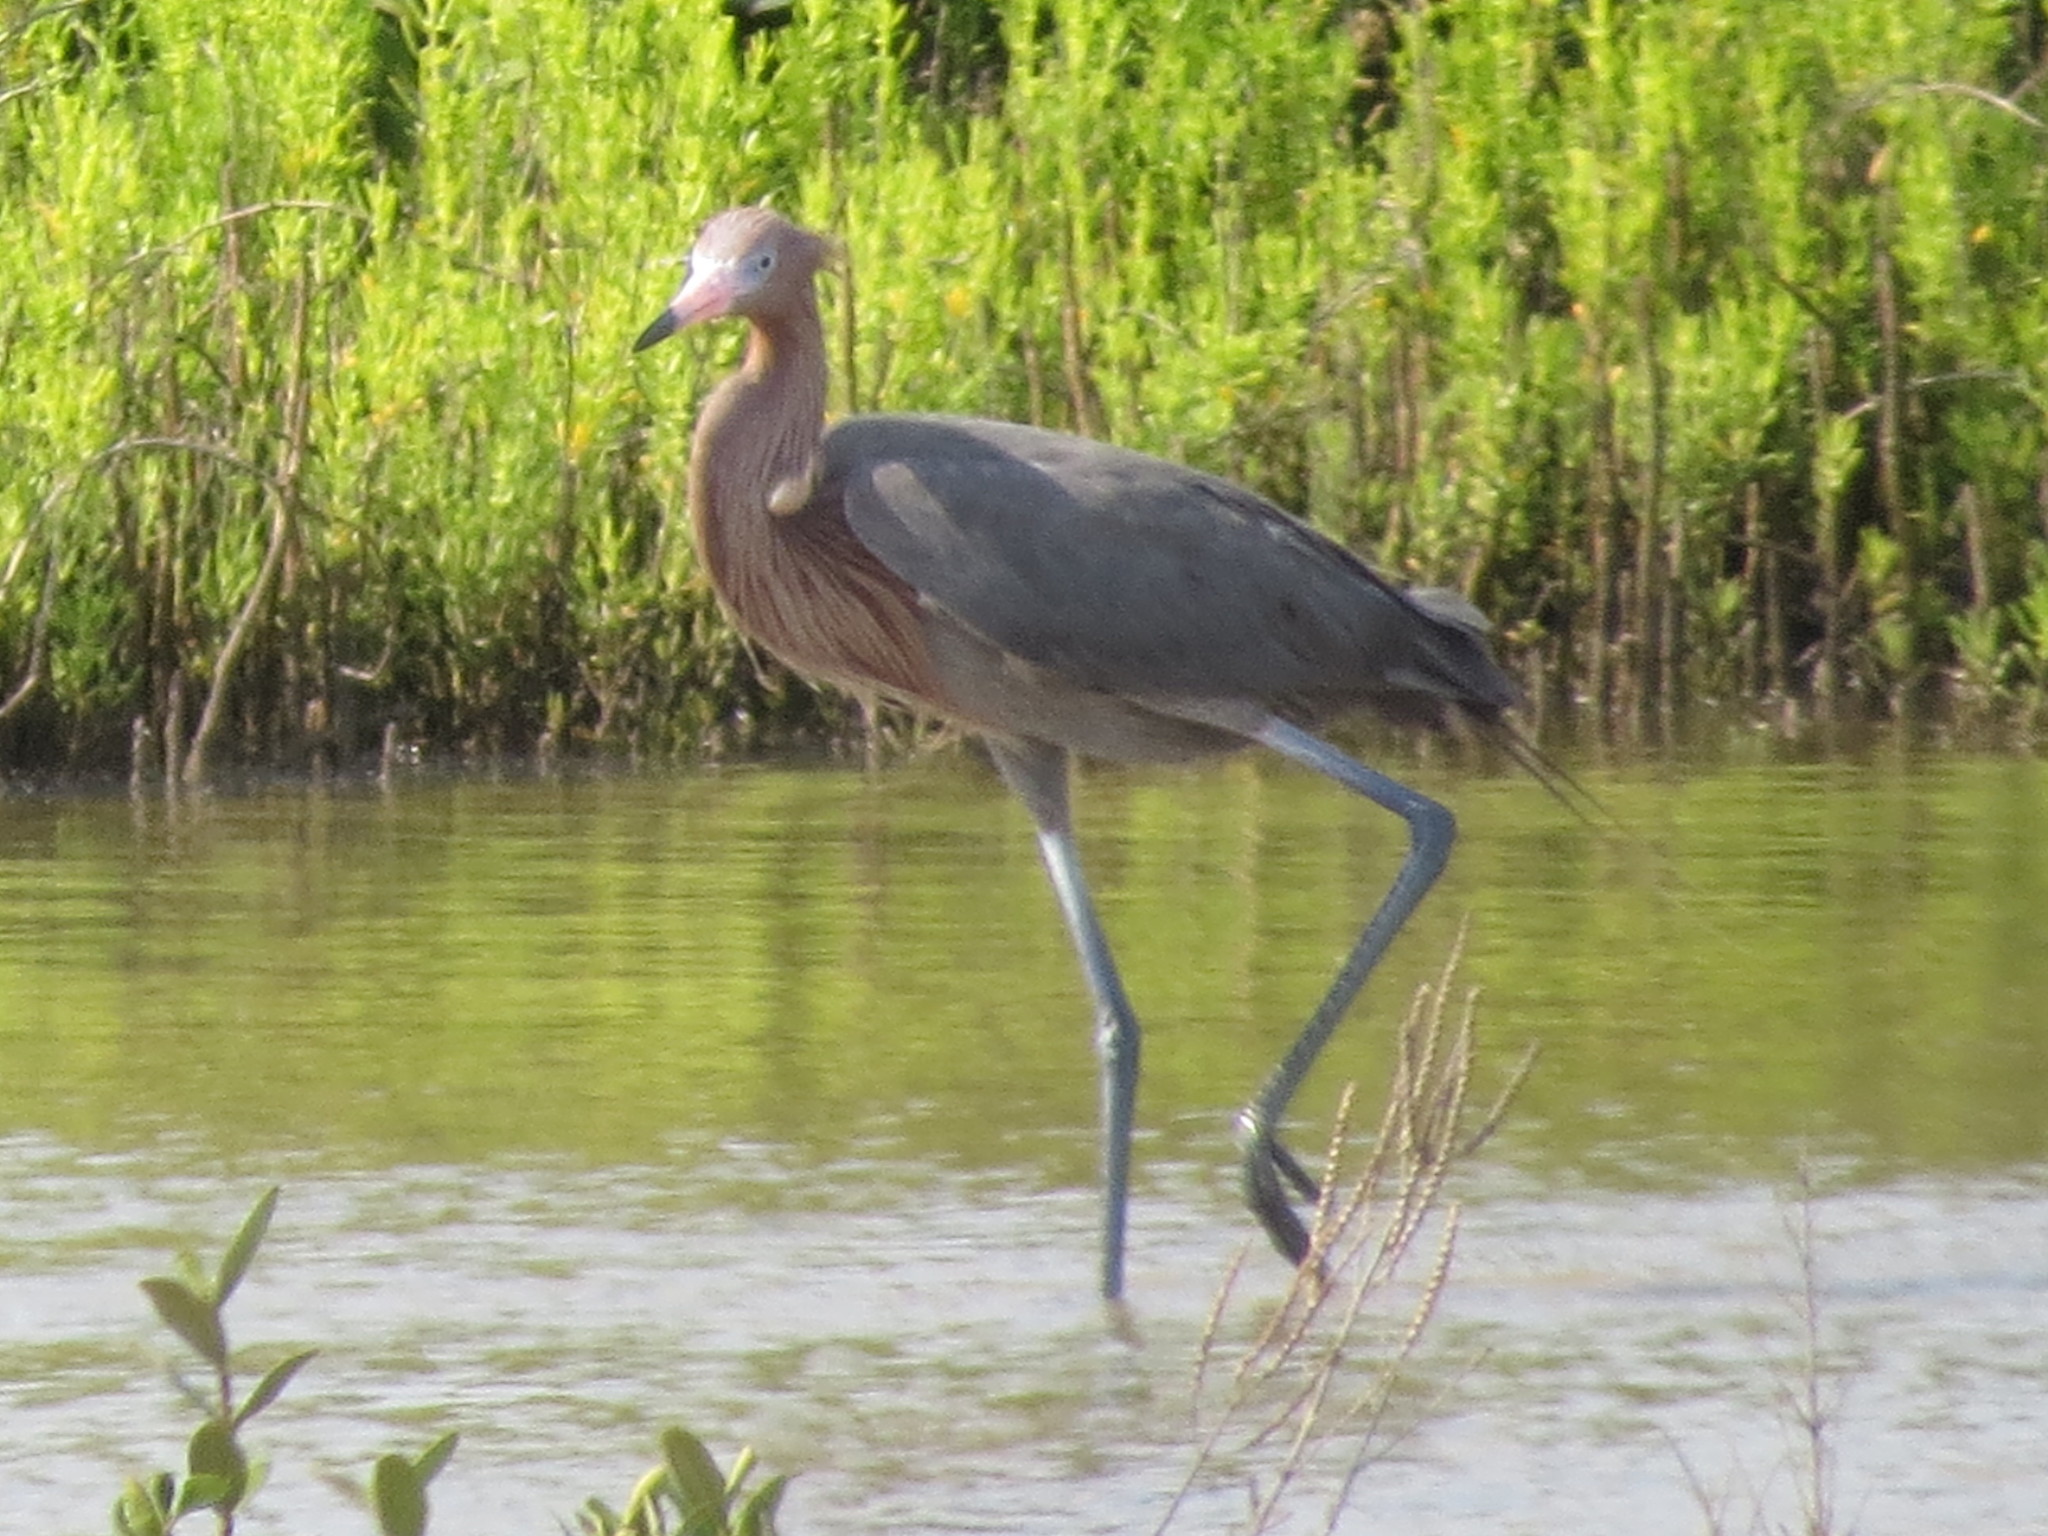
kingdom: Animalia
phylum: Chordata
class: Aves
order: Pelecaniformes
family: Ardeidae
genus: Egretta
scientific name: Egretta rufescens
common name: Reddish egret
